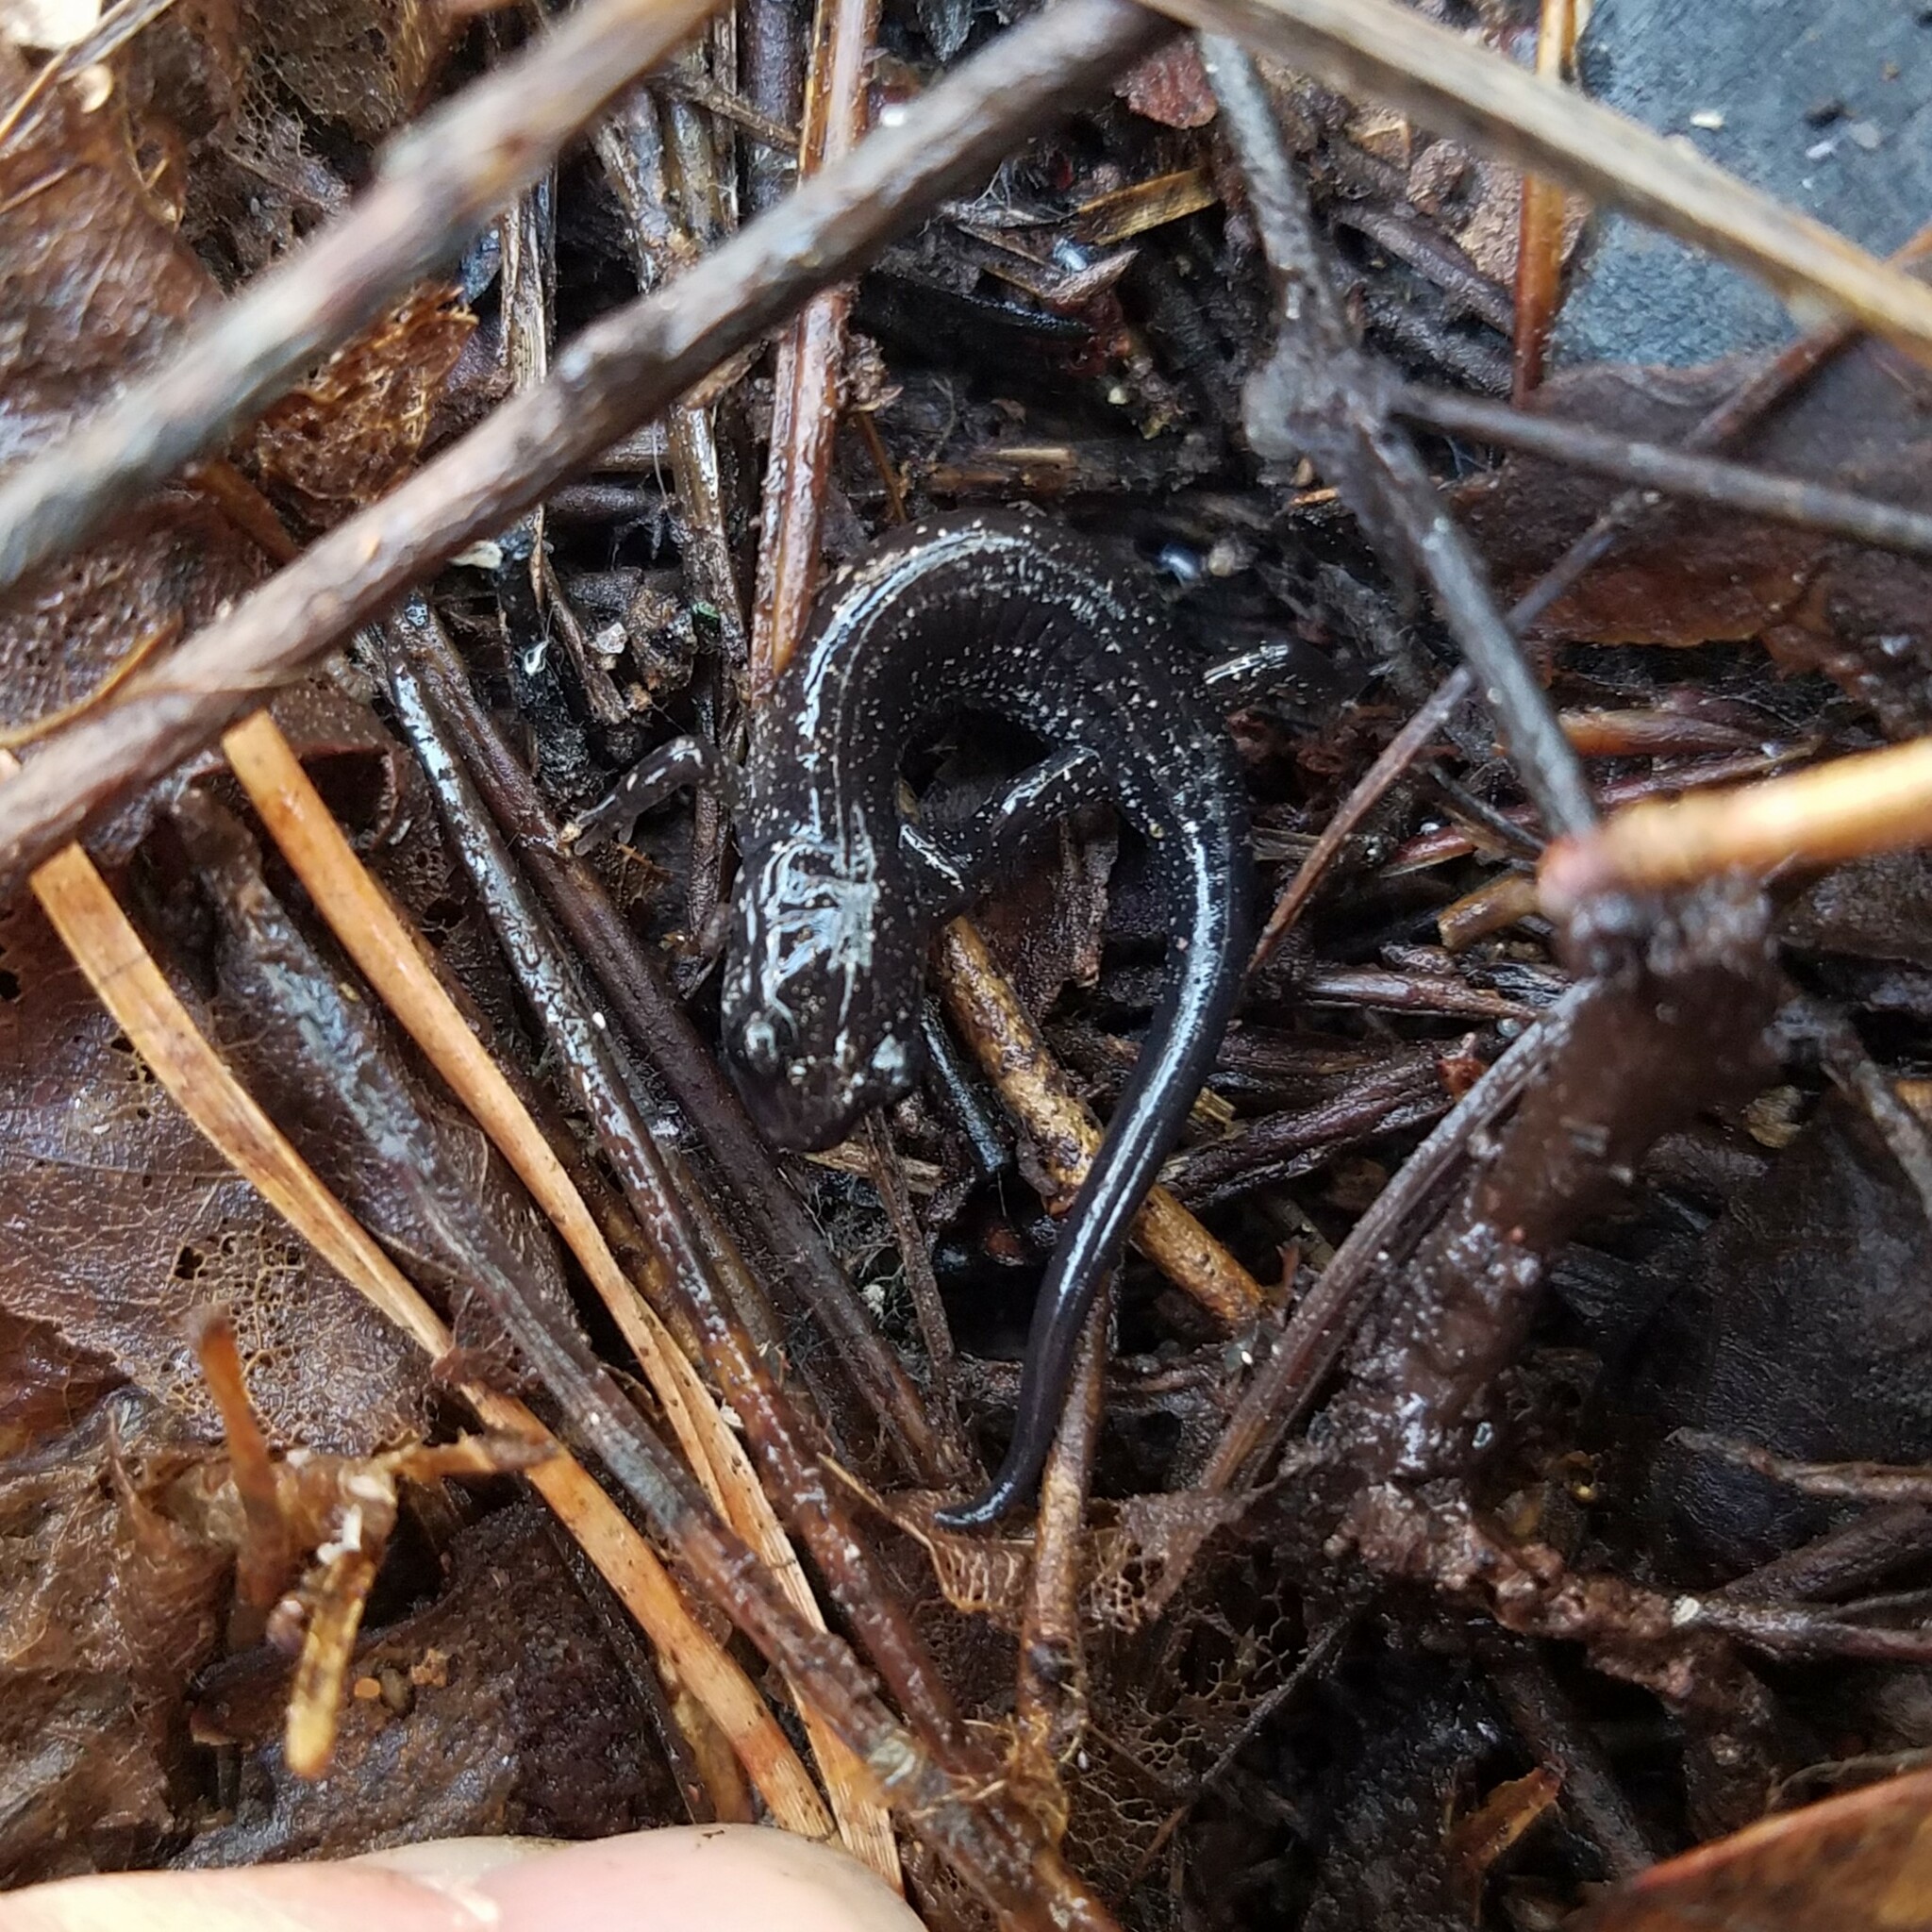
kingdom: Animalia
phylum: Chordata
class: Amphibia
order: Caudata
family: Plethodontidae
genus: Plethodon
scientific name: Plethodon chattahoochee
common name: Chattahoochee slimy salamander
